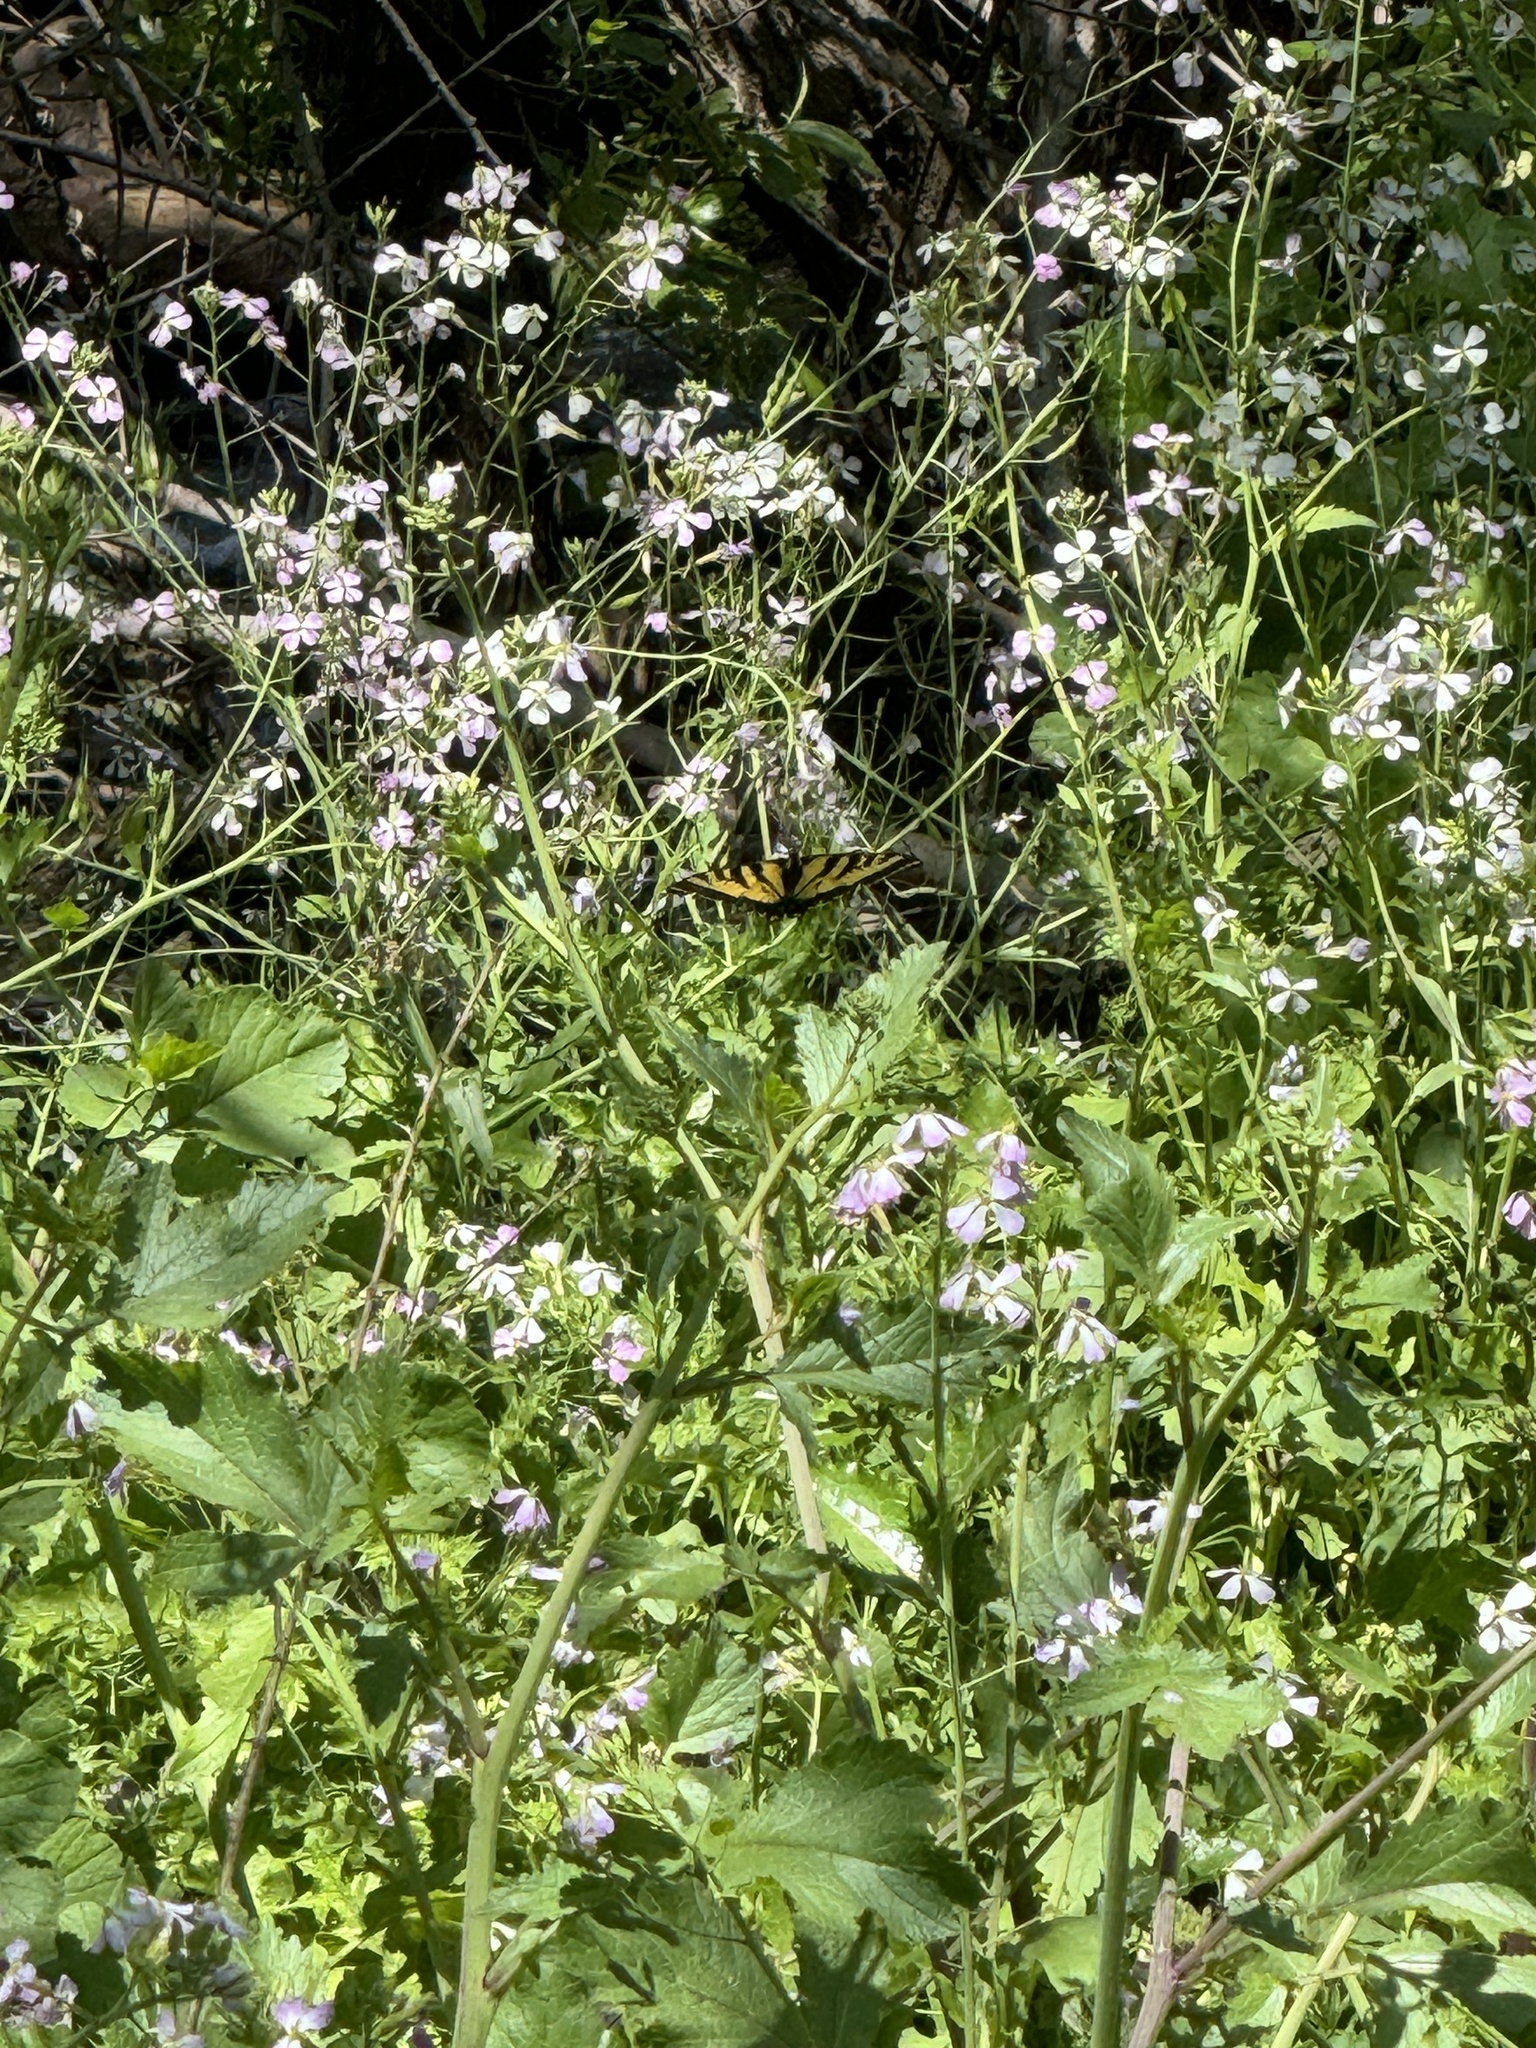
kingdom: Animalia
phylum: Arthropoda
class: Insecta
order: Lepidoptera
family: Papilionidae
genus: Papilio
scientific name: Papilio rutulus
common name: Western tiger swallowtail
